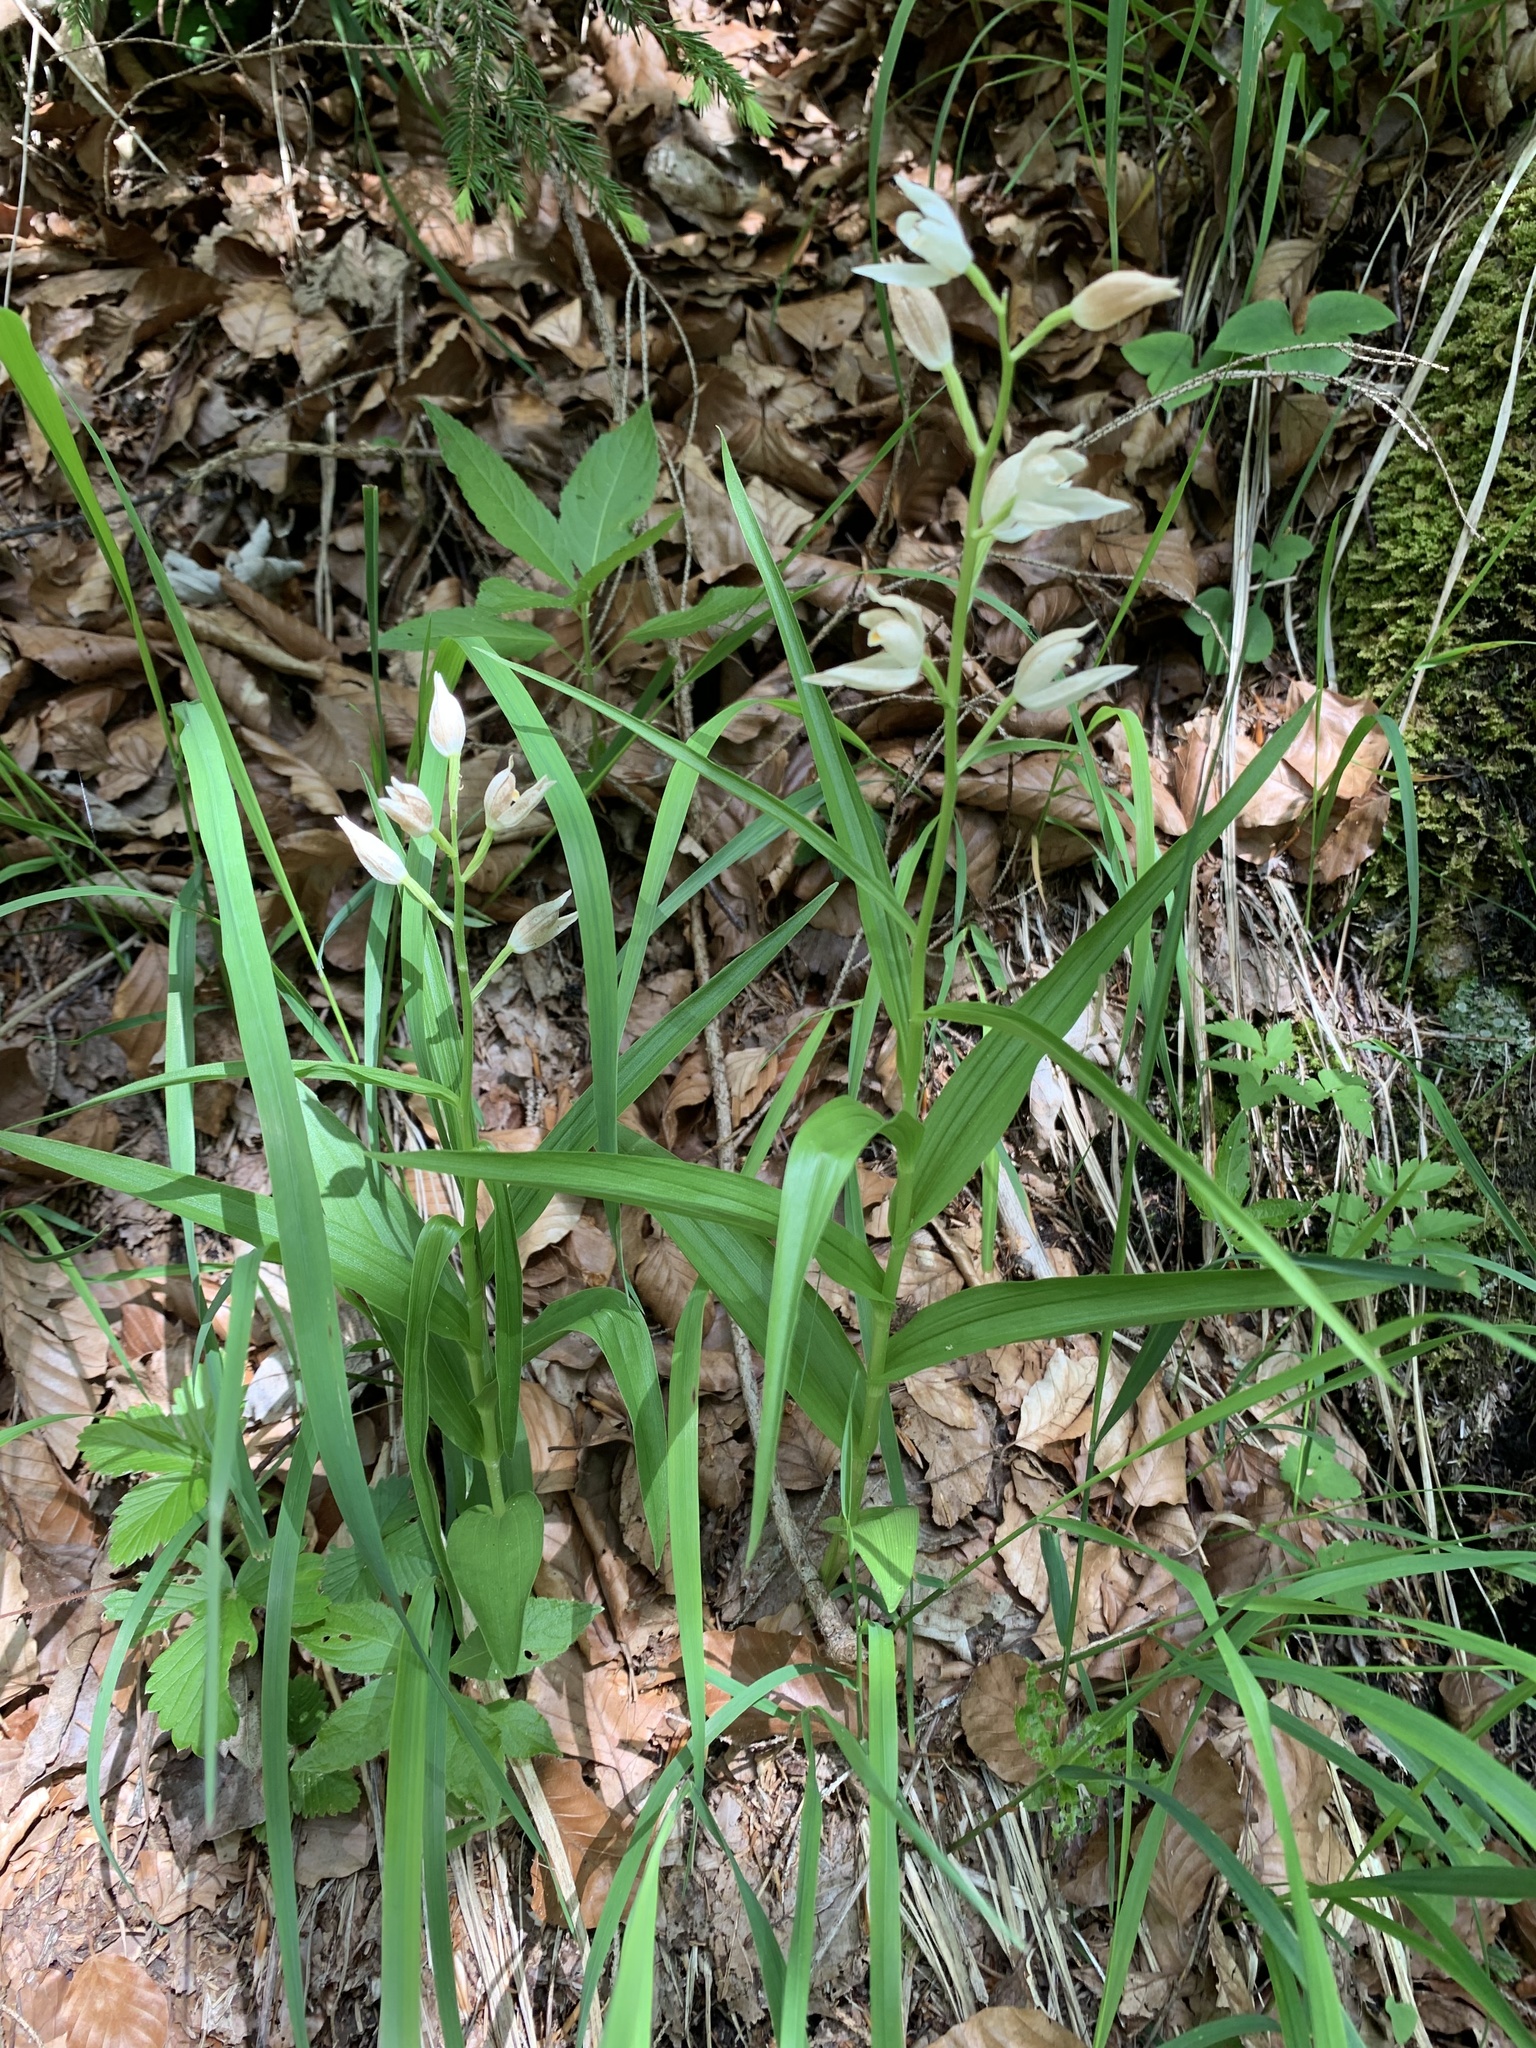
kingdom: Plantae
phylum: Tracheophyta
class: Liliopsida
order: Asparagales
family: Orchidaceae
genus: Cephalanthera
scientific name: Cephalanthera longifolia
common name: Narrow-leaved helleborine
